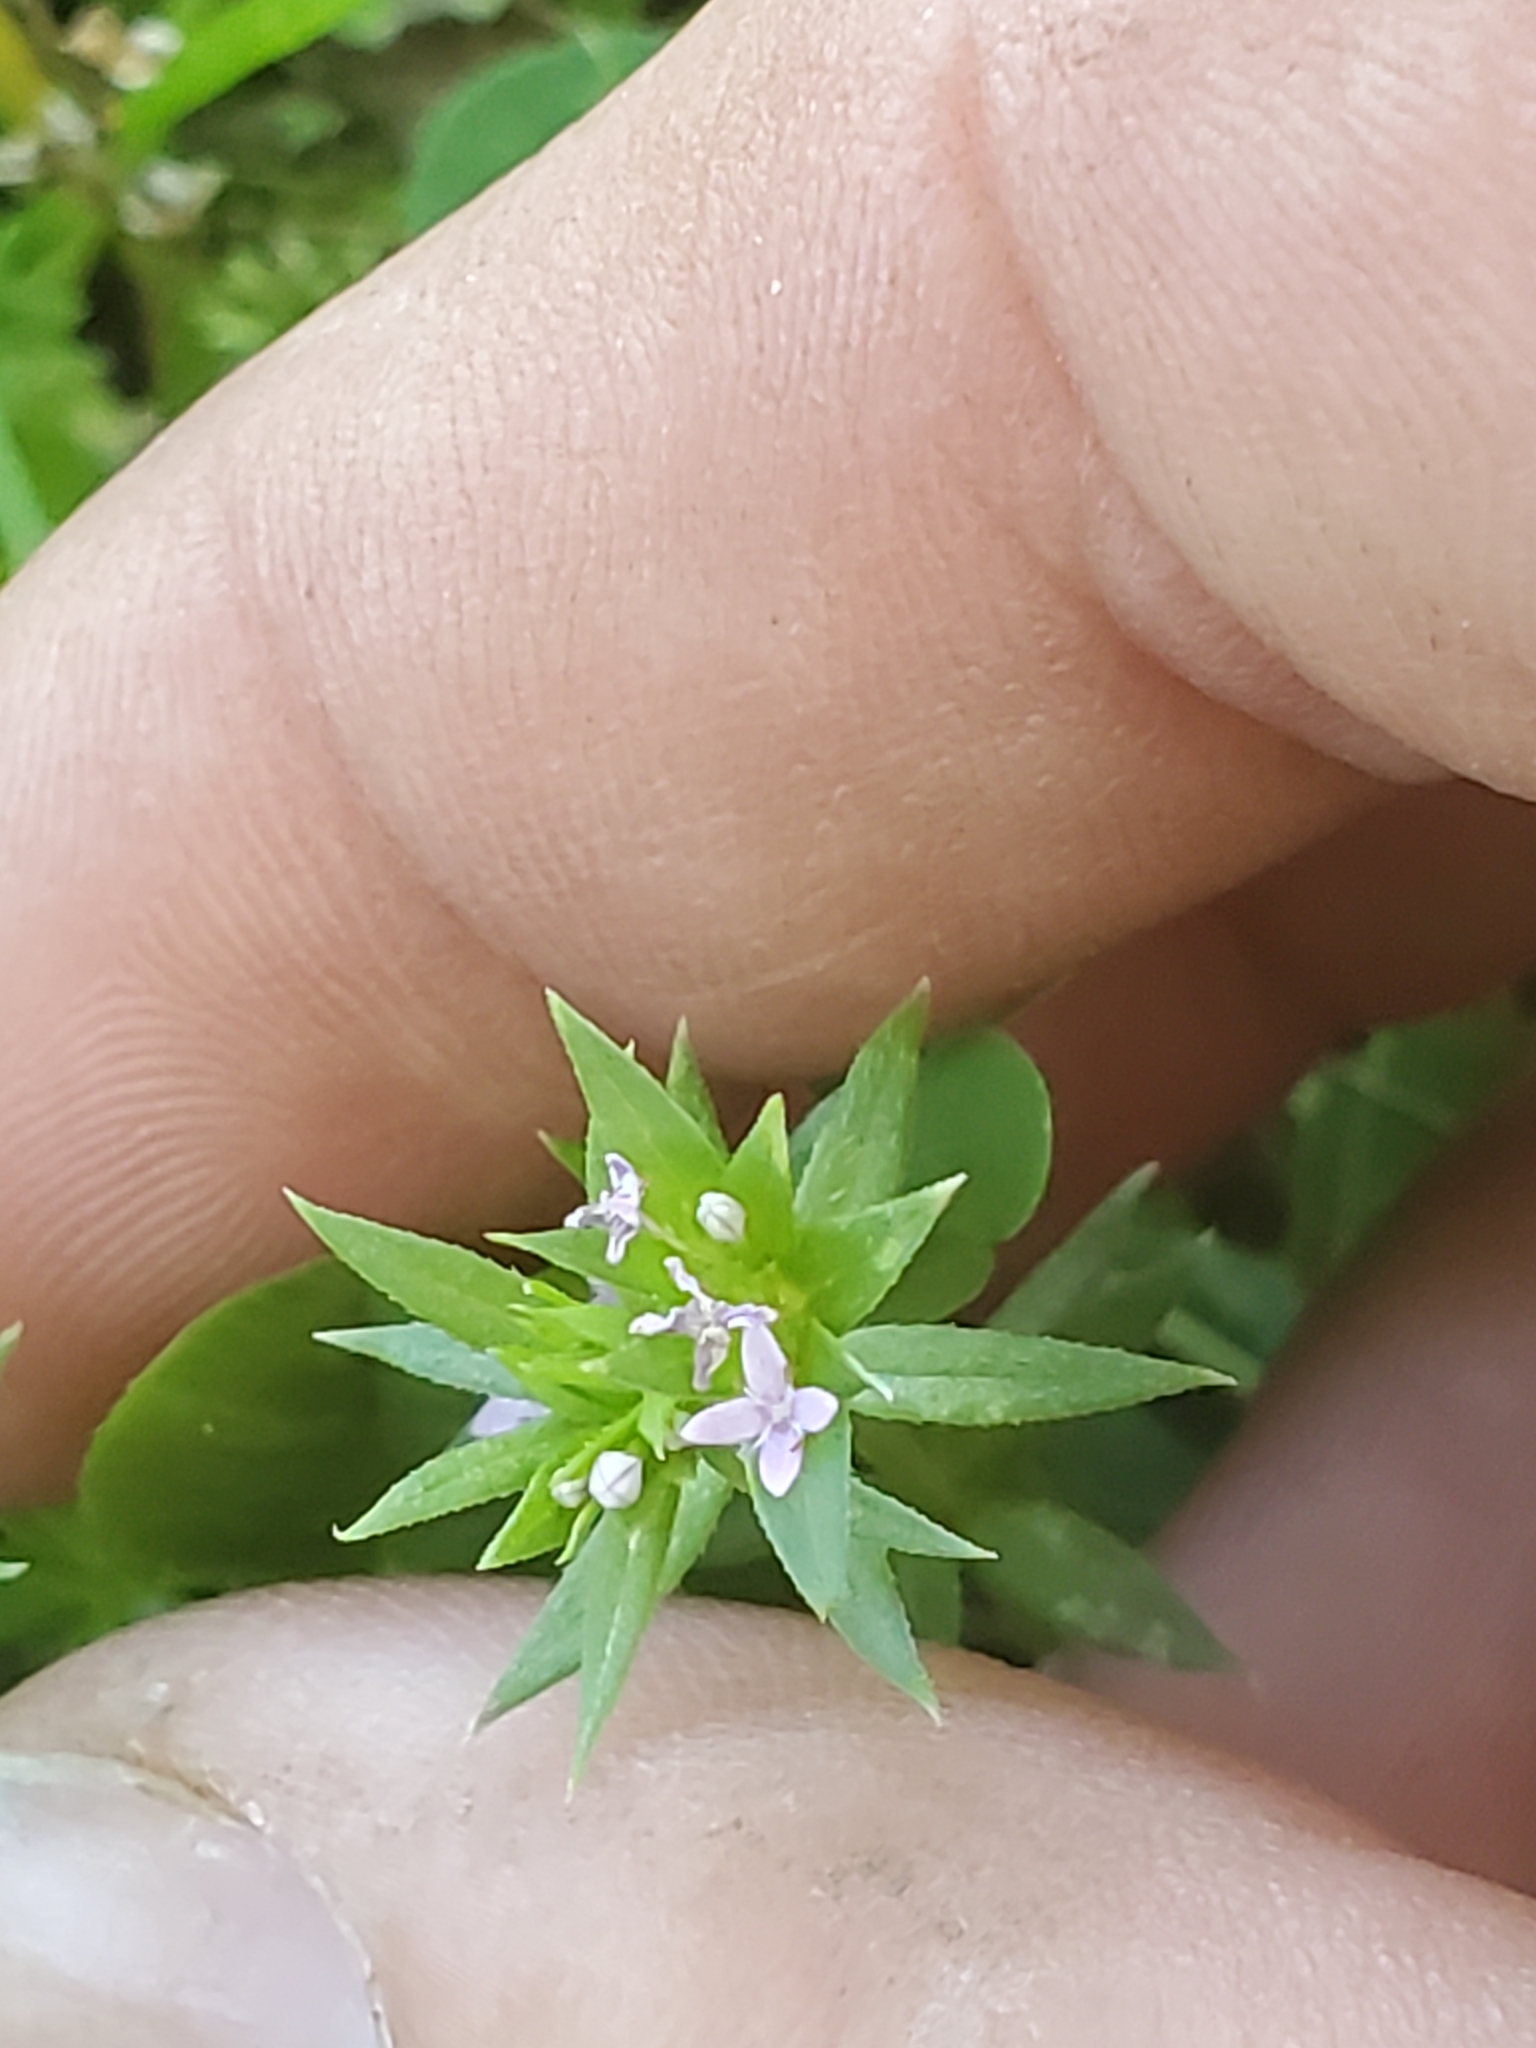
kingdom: Plantae
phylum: Tracheophyta
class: Magnoliopsida
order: Gentianales
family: Rubiaceae
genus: Sherardia
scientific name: Sherardia arvensis
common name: Field madder
